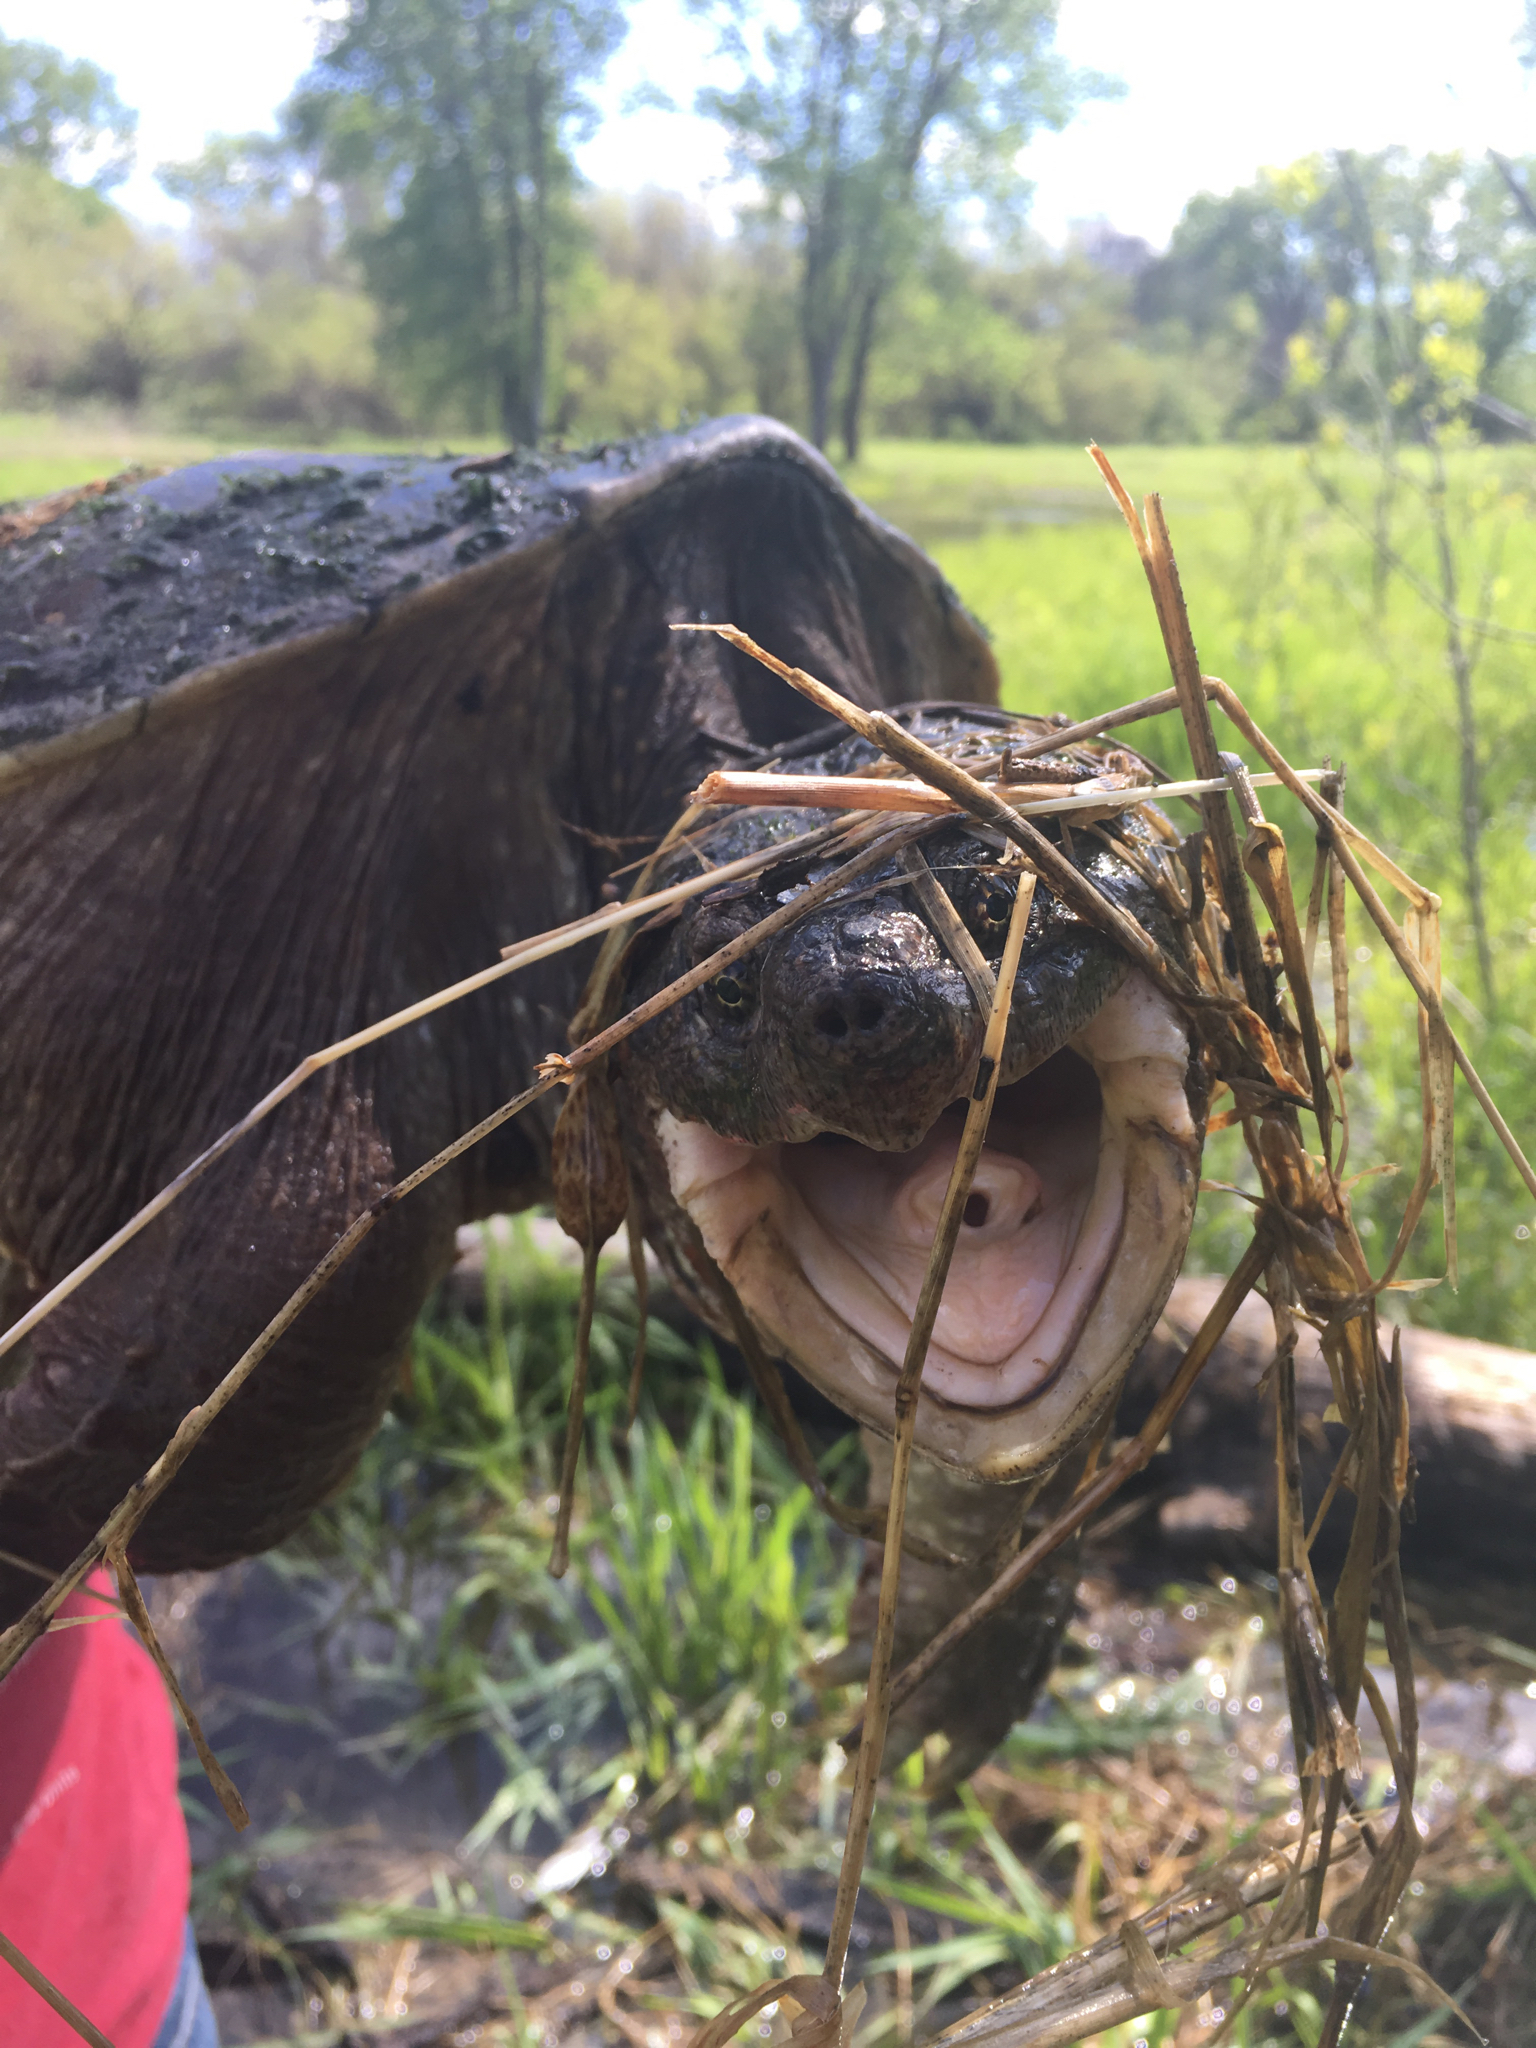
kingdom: Animalia
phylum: Chordata
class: Testudines
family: Chelydridae
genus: Chelydra
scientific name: Chelydra serpentina
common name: Common snapping turtle
